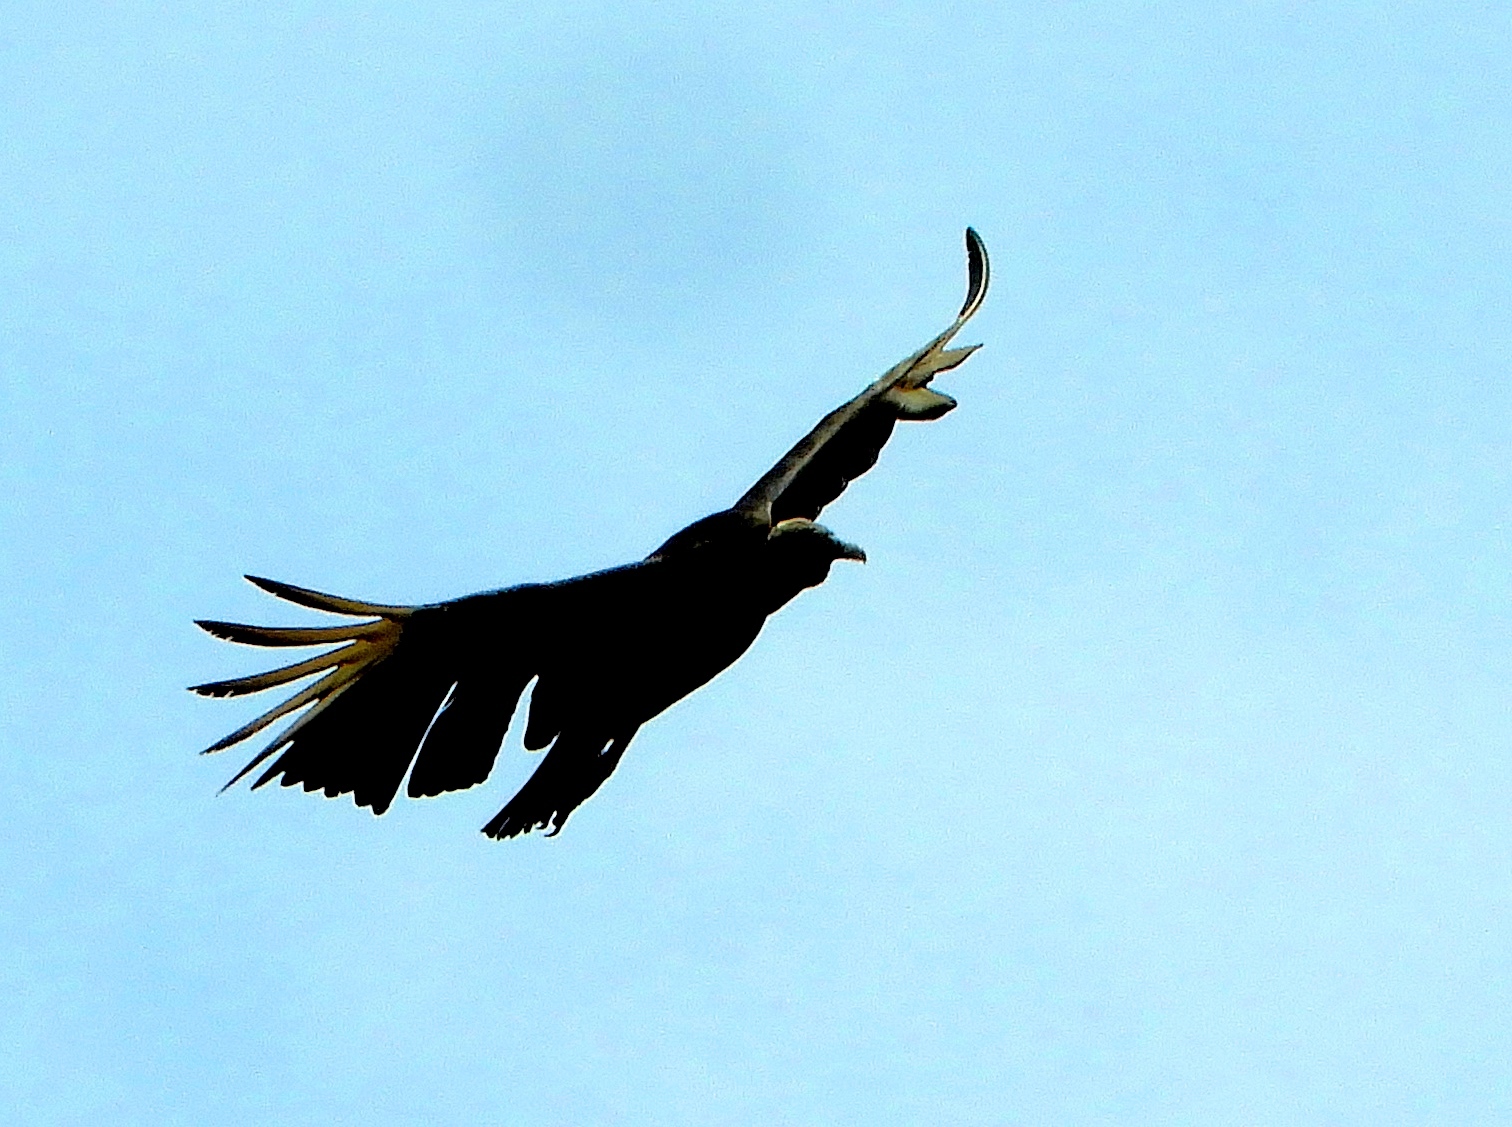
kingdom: Animalia
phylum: Chordata
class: Aves
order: Accipitriformes
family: Cathartidae
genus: Coragyps
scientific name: Coragyps atratus
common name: Black vulture
